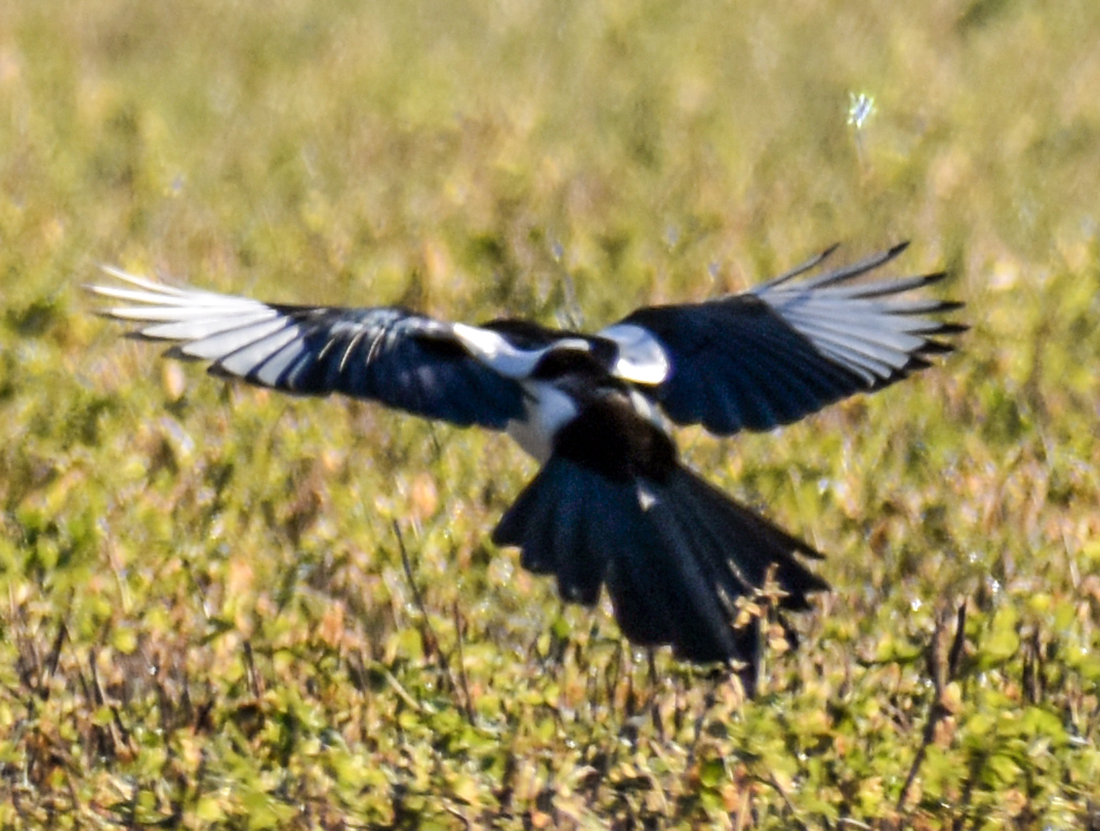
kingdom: Animalia
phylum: Chordata
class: Aves
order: Passeriformes
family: Corvidae
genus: Pica
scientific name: Pica pica
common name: Eurasian magpie
